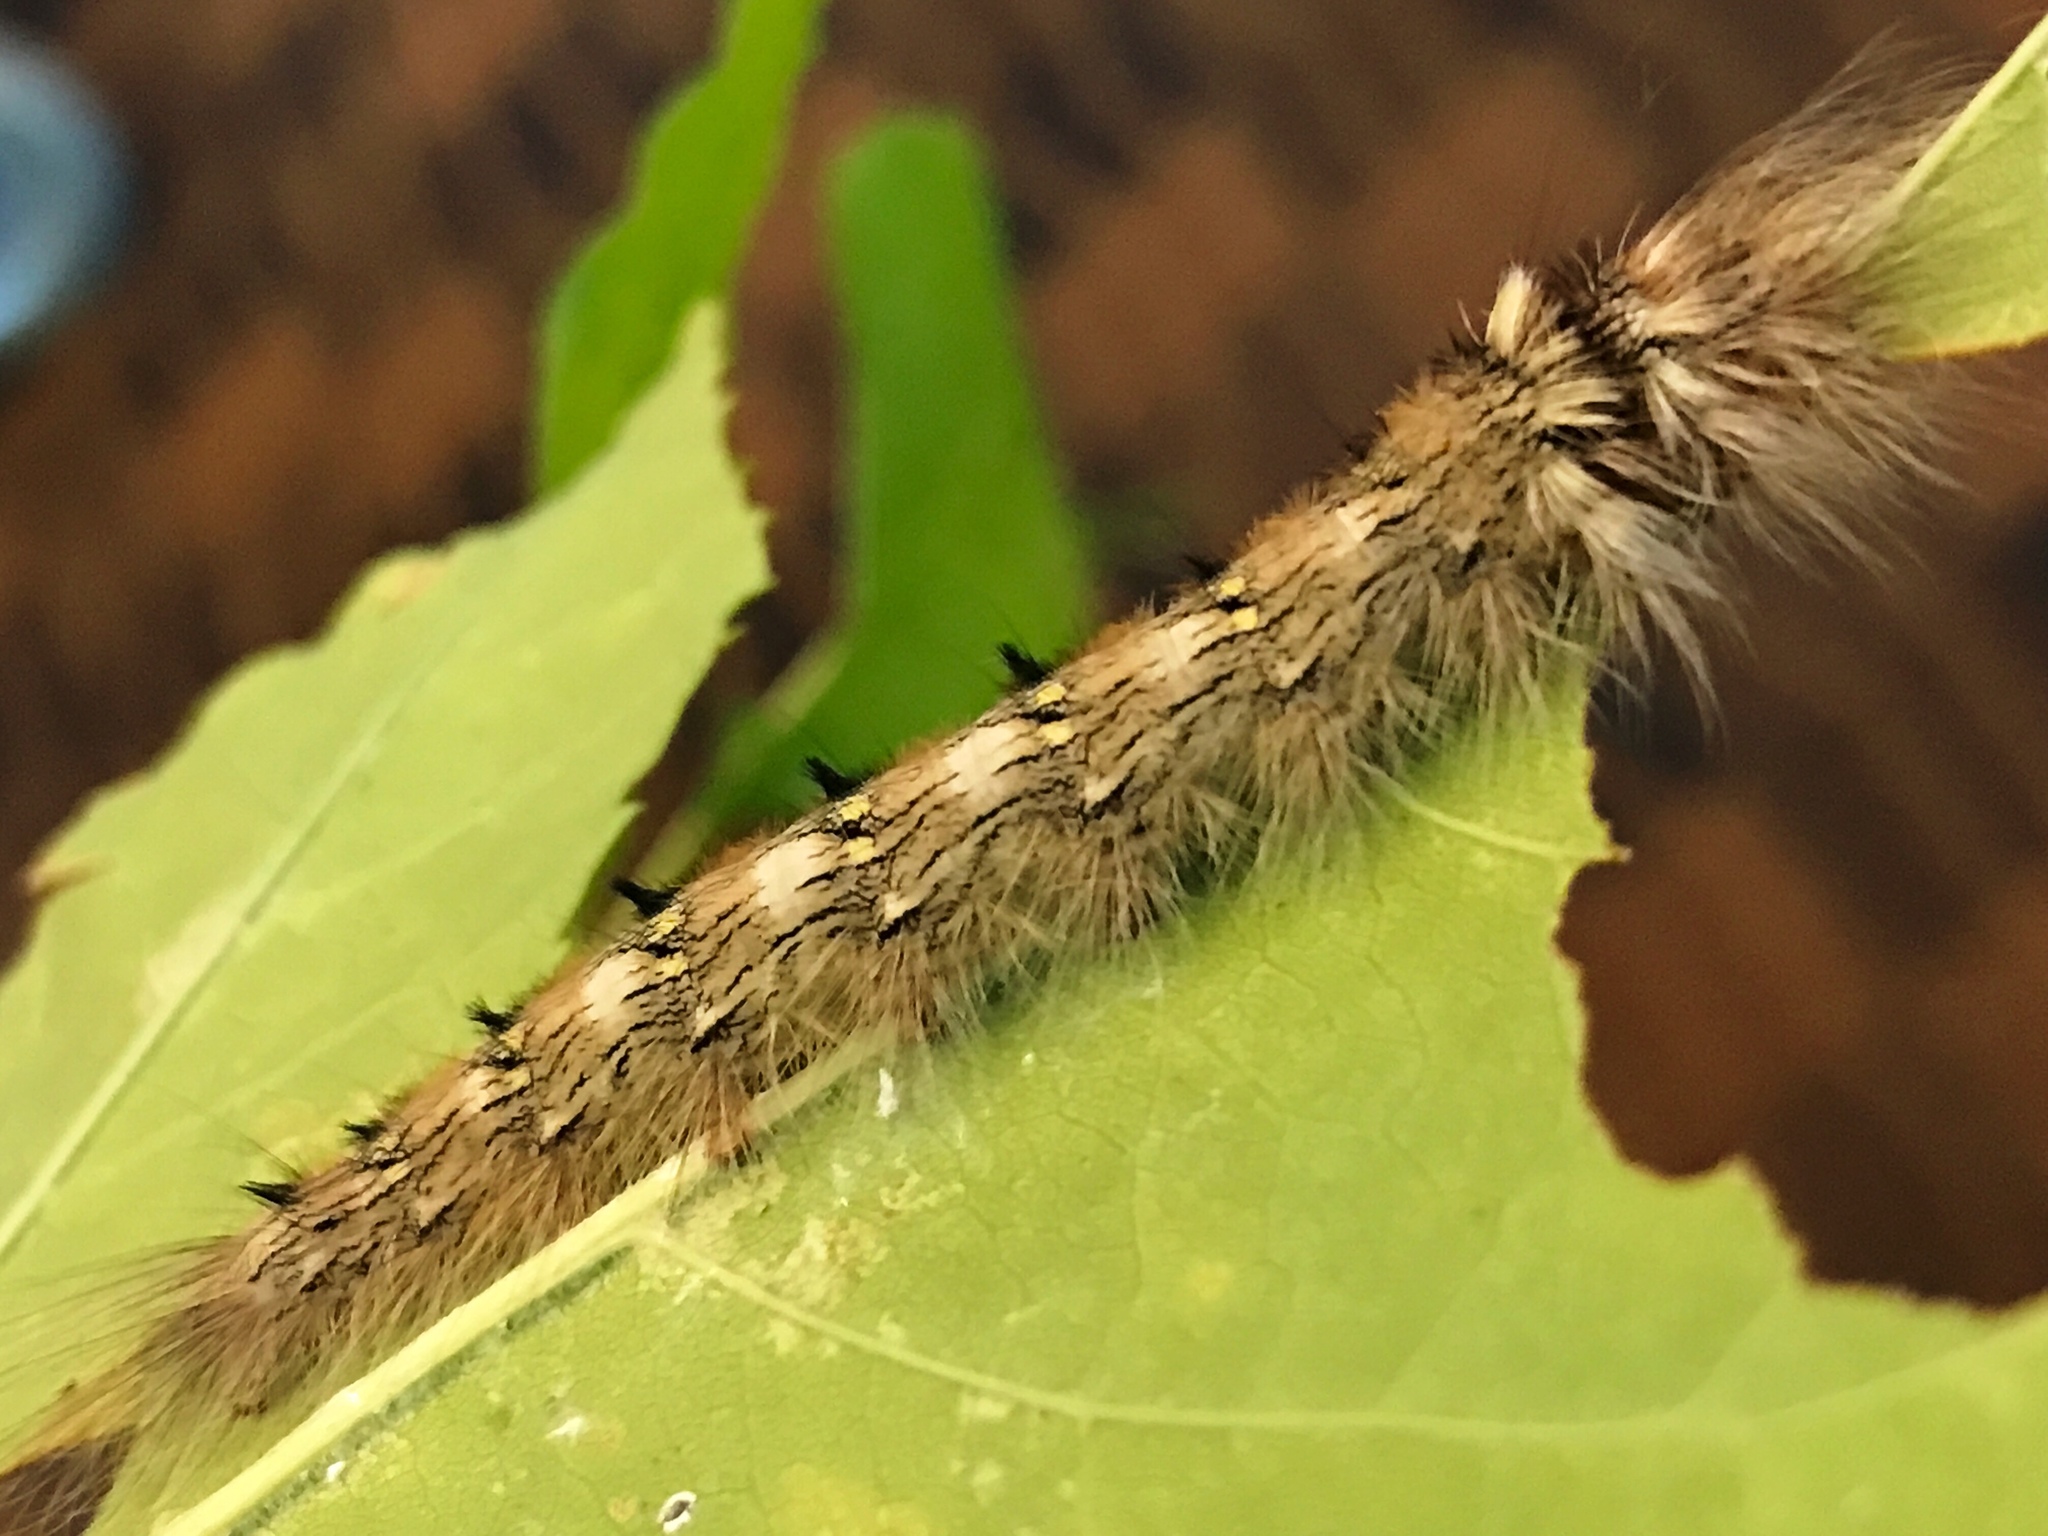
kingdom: Animalia
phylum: Arthropoda
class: Insecta
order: Lepidoptera
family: Apatelodidae
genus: Olceclostera
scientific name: Olceclostera angelica
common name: Angel moth
